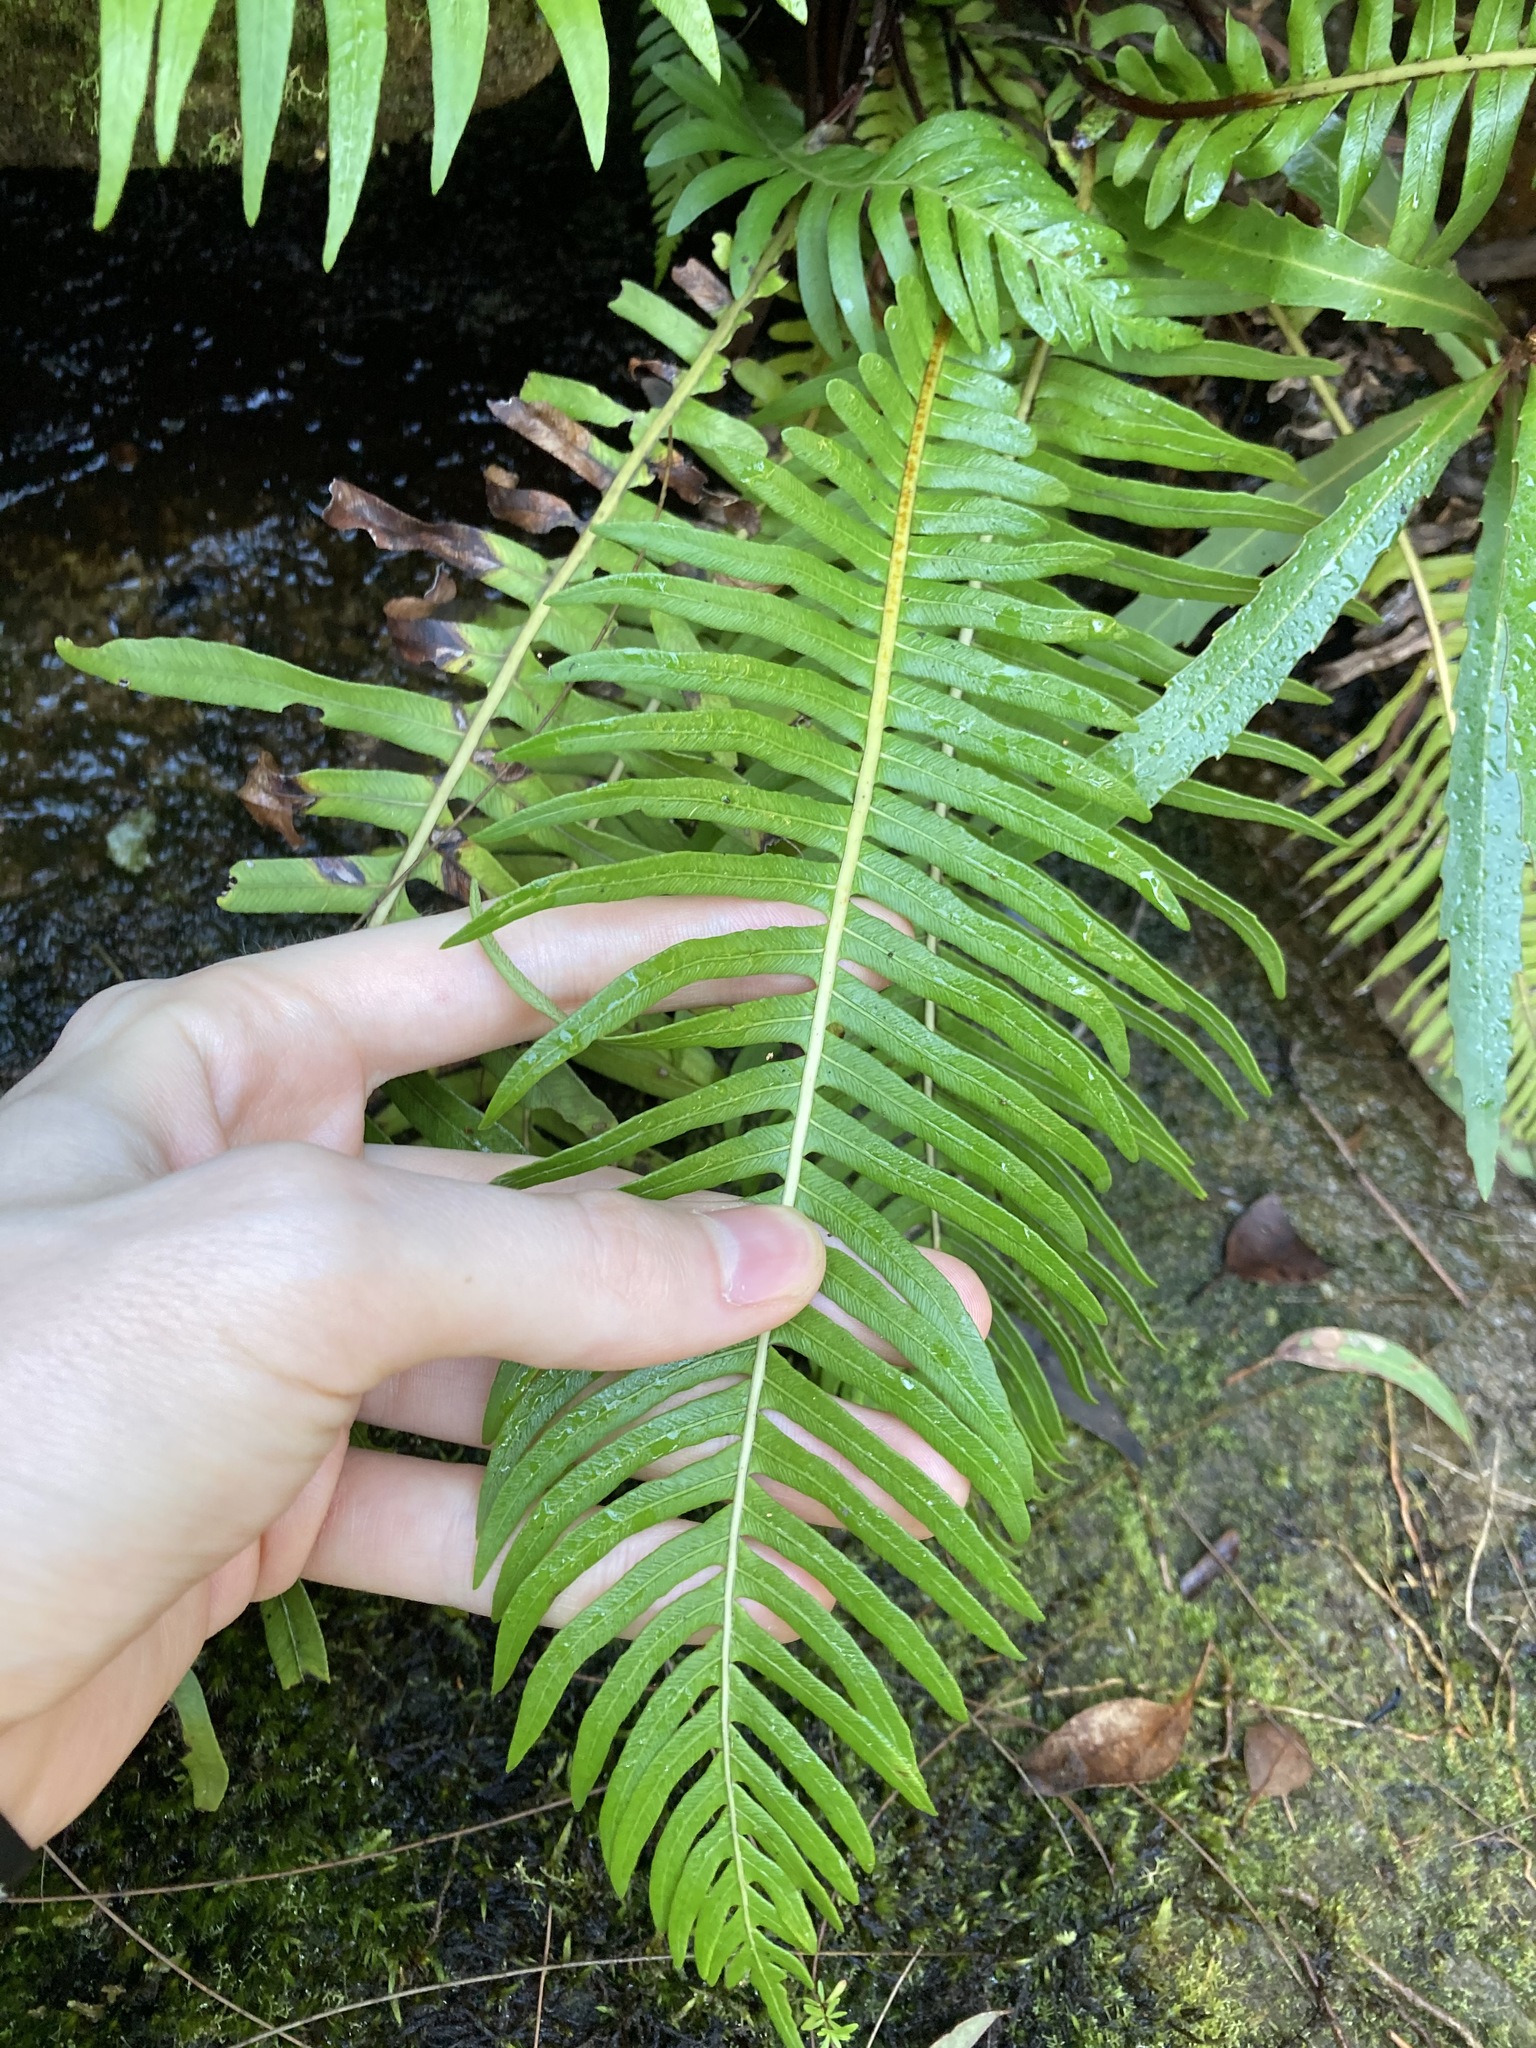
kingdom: Plantae
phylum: Tracheophyta
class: Polypodiopsida
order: Polypodiales
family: Blechnaceae
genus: Lomaria
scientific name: Lomaria nuda
